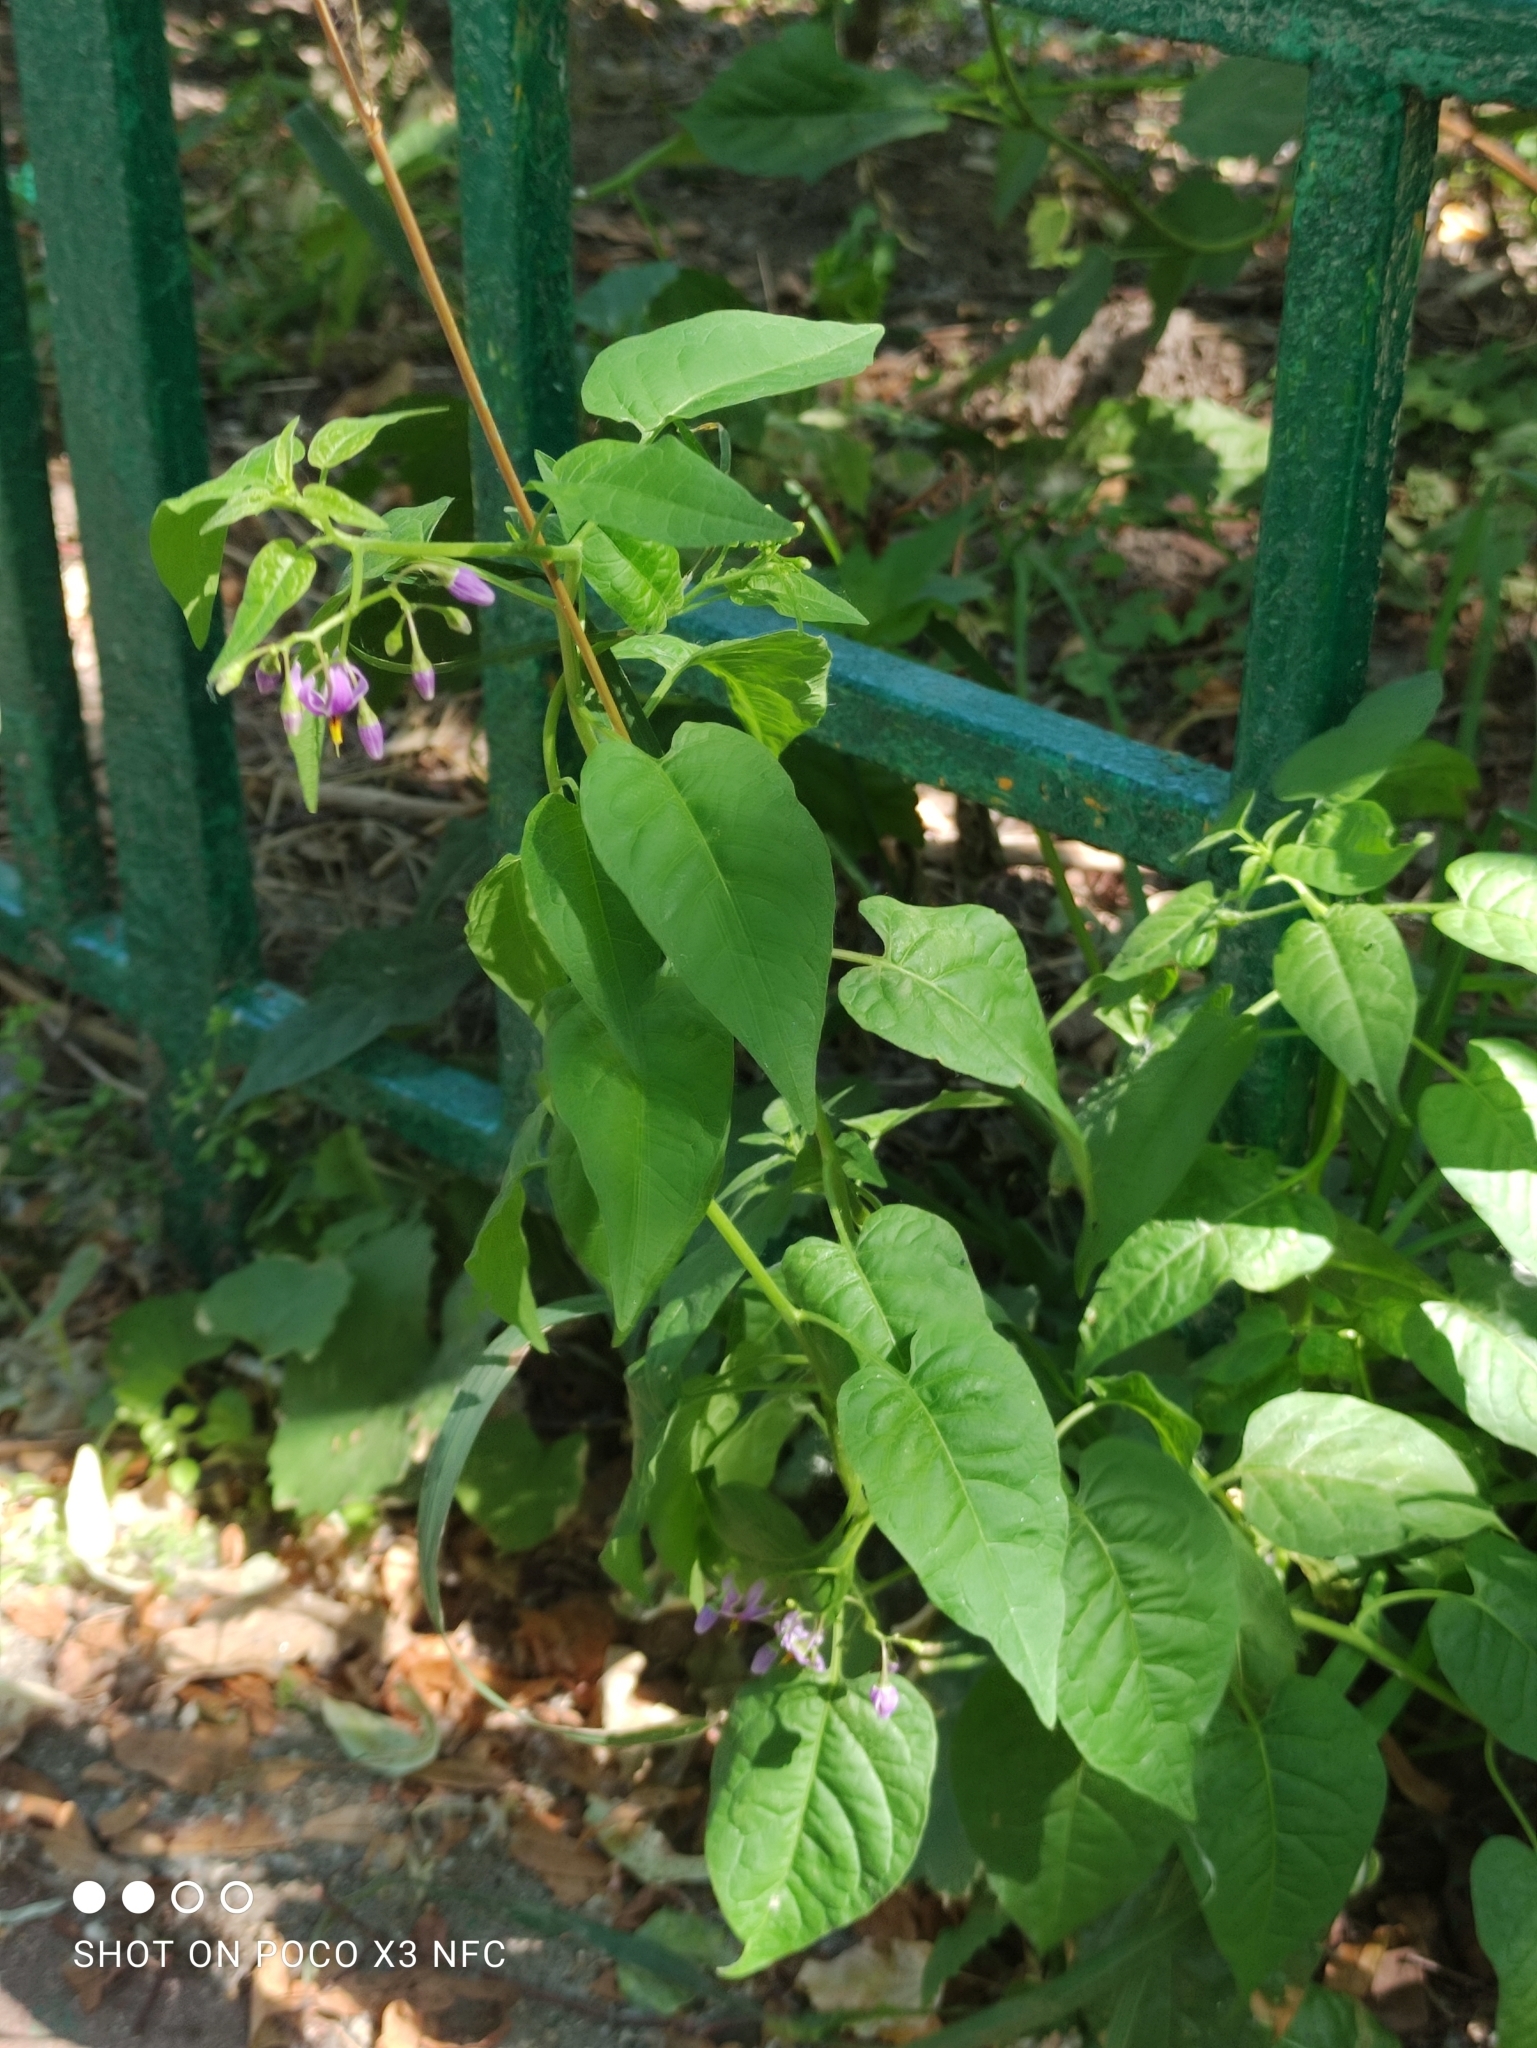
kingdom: Plantae
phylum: Tracheophyta
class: Magnoliopsida
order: Solanales
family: Solanaceae
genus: Solanum
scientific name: Solanum dulcamara
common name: Climbing nightshade
